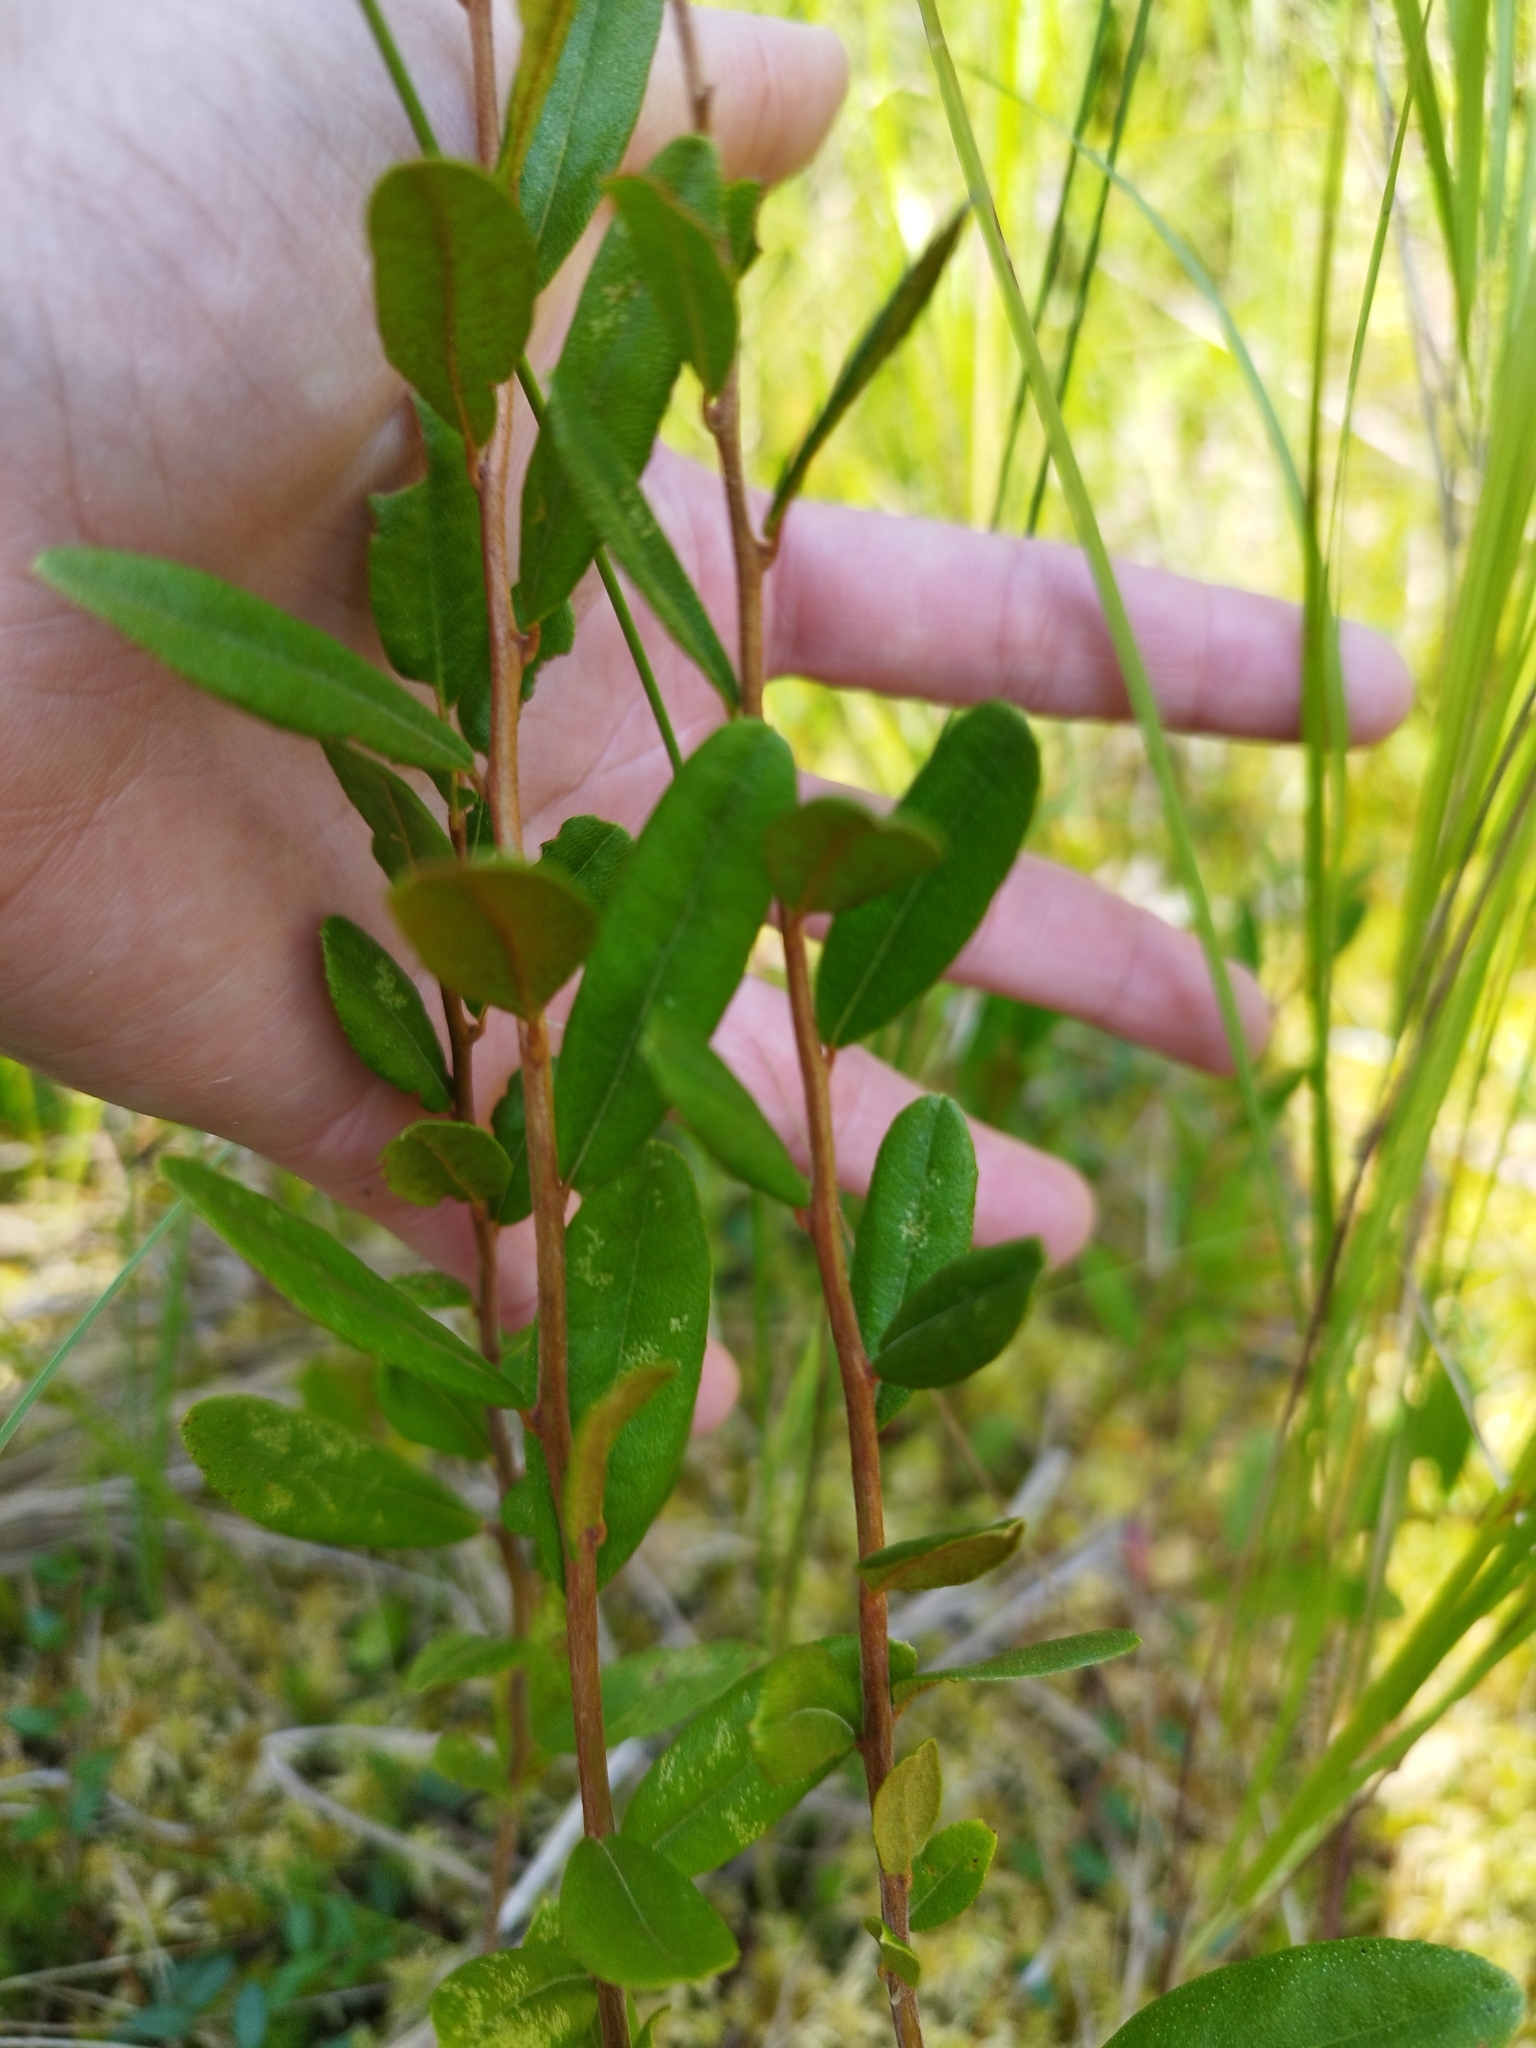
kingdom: Plantae
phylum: Tracheophyta
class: Magnoliopsida
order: Ericales
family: Ericaceae
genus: Chamaedaphne
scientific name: Chamaedaphne calyculata
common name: Leatherleaf
